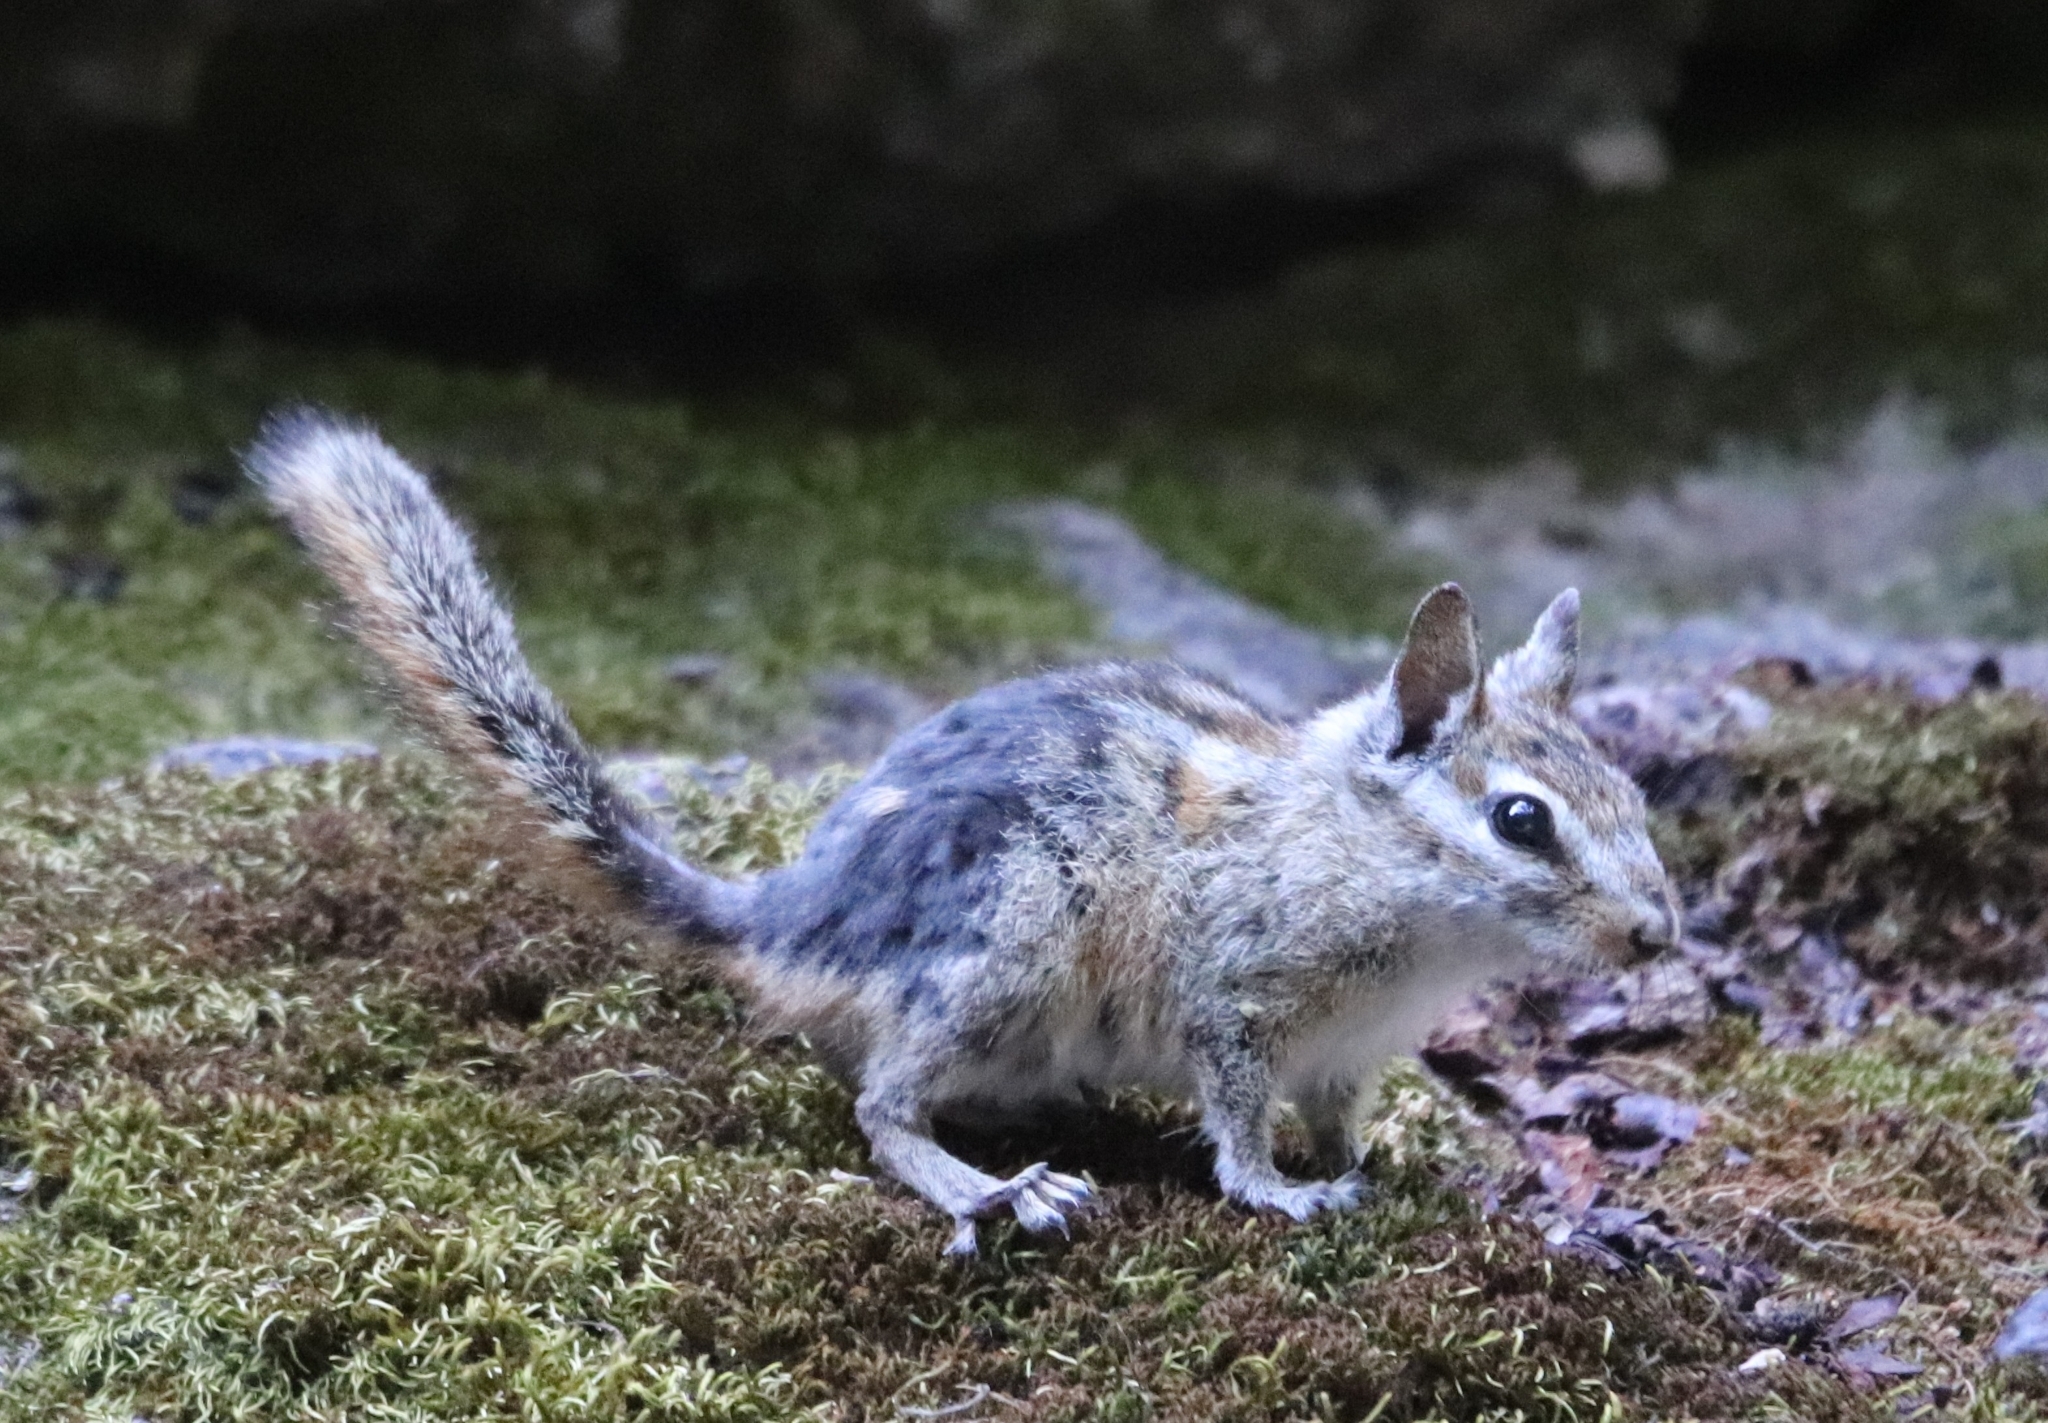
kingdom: Animalia
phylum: Chordata
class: Mammalia
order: Rodentia
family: Sciuridae
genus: Tamias
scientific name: Tamias merriami
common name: Merriam's chipmunk
